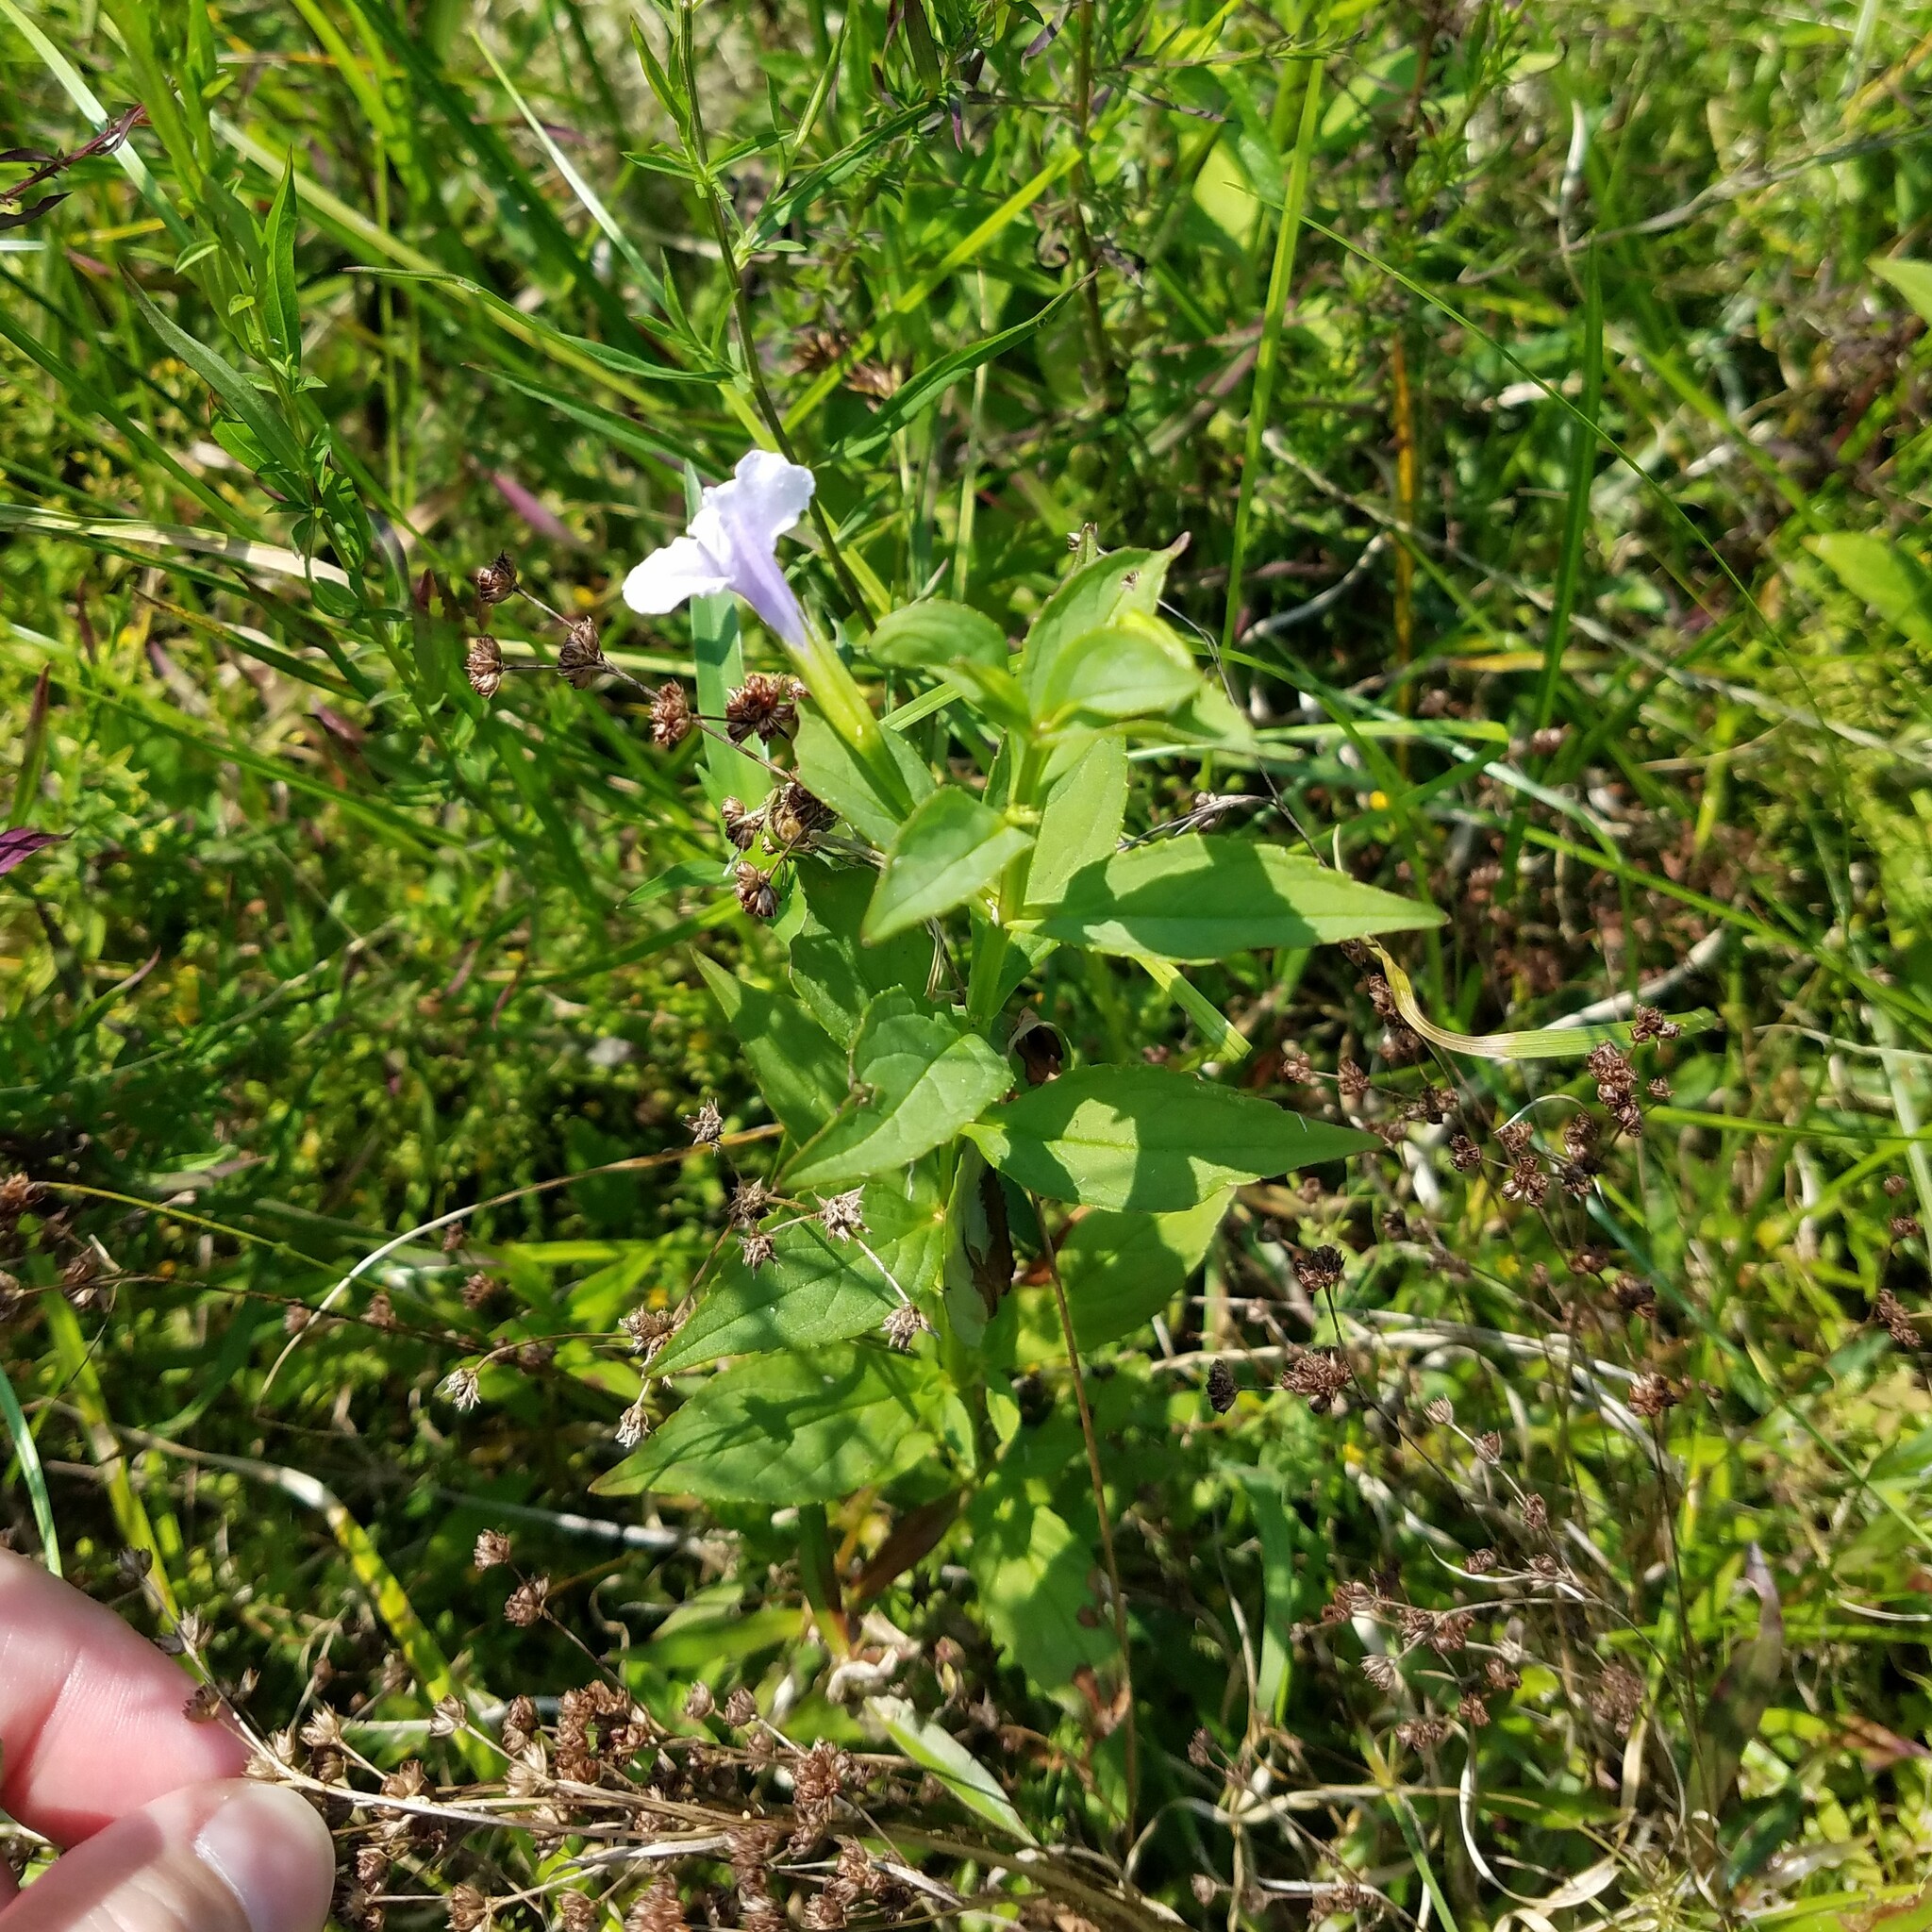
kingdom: Plantae
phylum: Tracheophyta
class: Magnoliopsida
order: Lamiales
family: Phrymaceae
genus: Mimulus
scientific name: Mimulus ringens
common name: Allegheny monkeyflower
